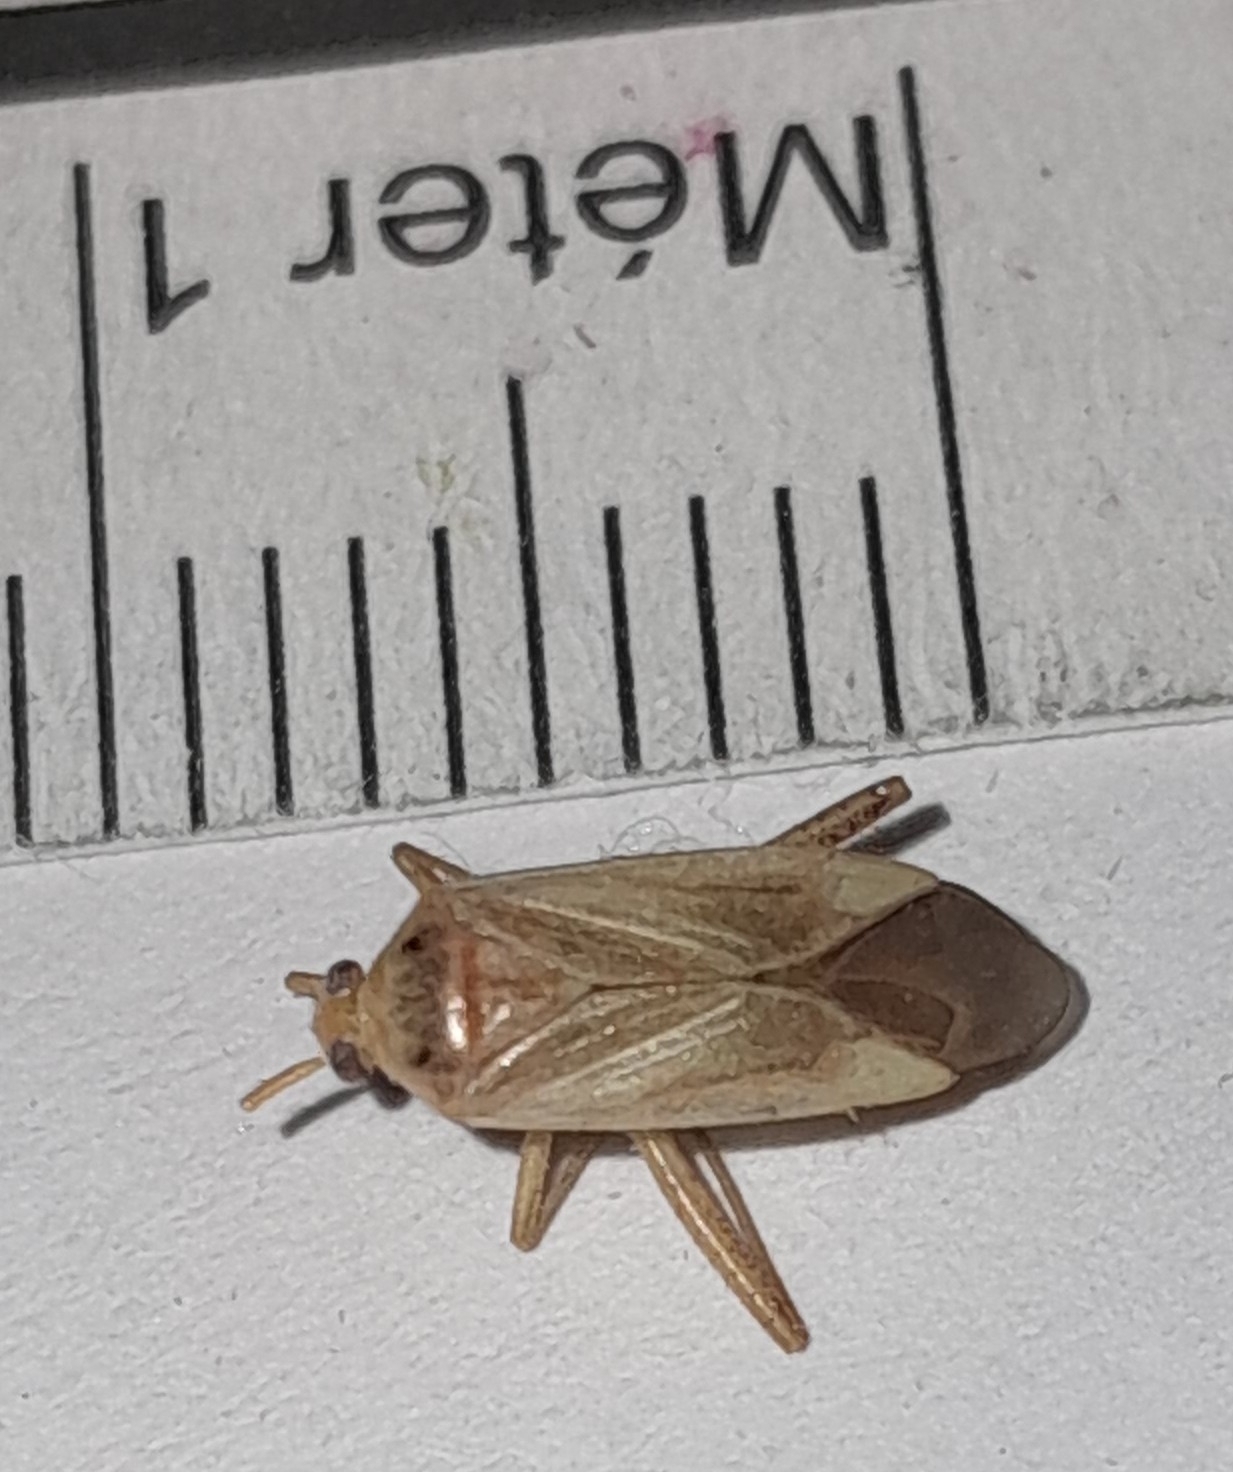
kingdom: Animalia
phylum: Arthropoda
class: Insecta
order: Hemiptera
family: Miridae
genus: Adelphocoris
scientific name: Adelphocoris lineolatus
